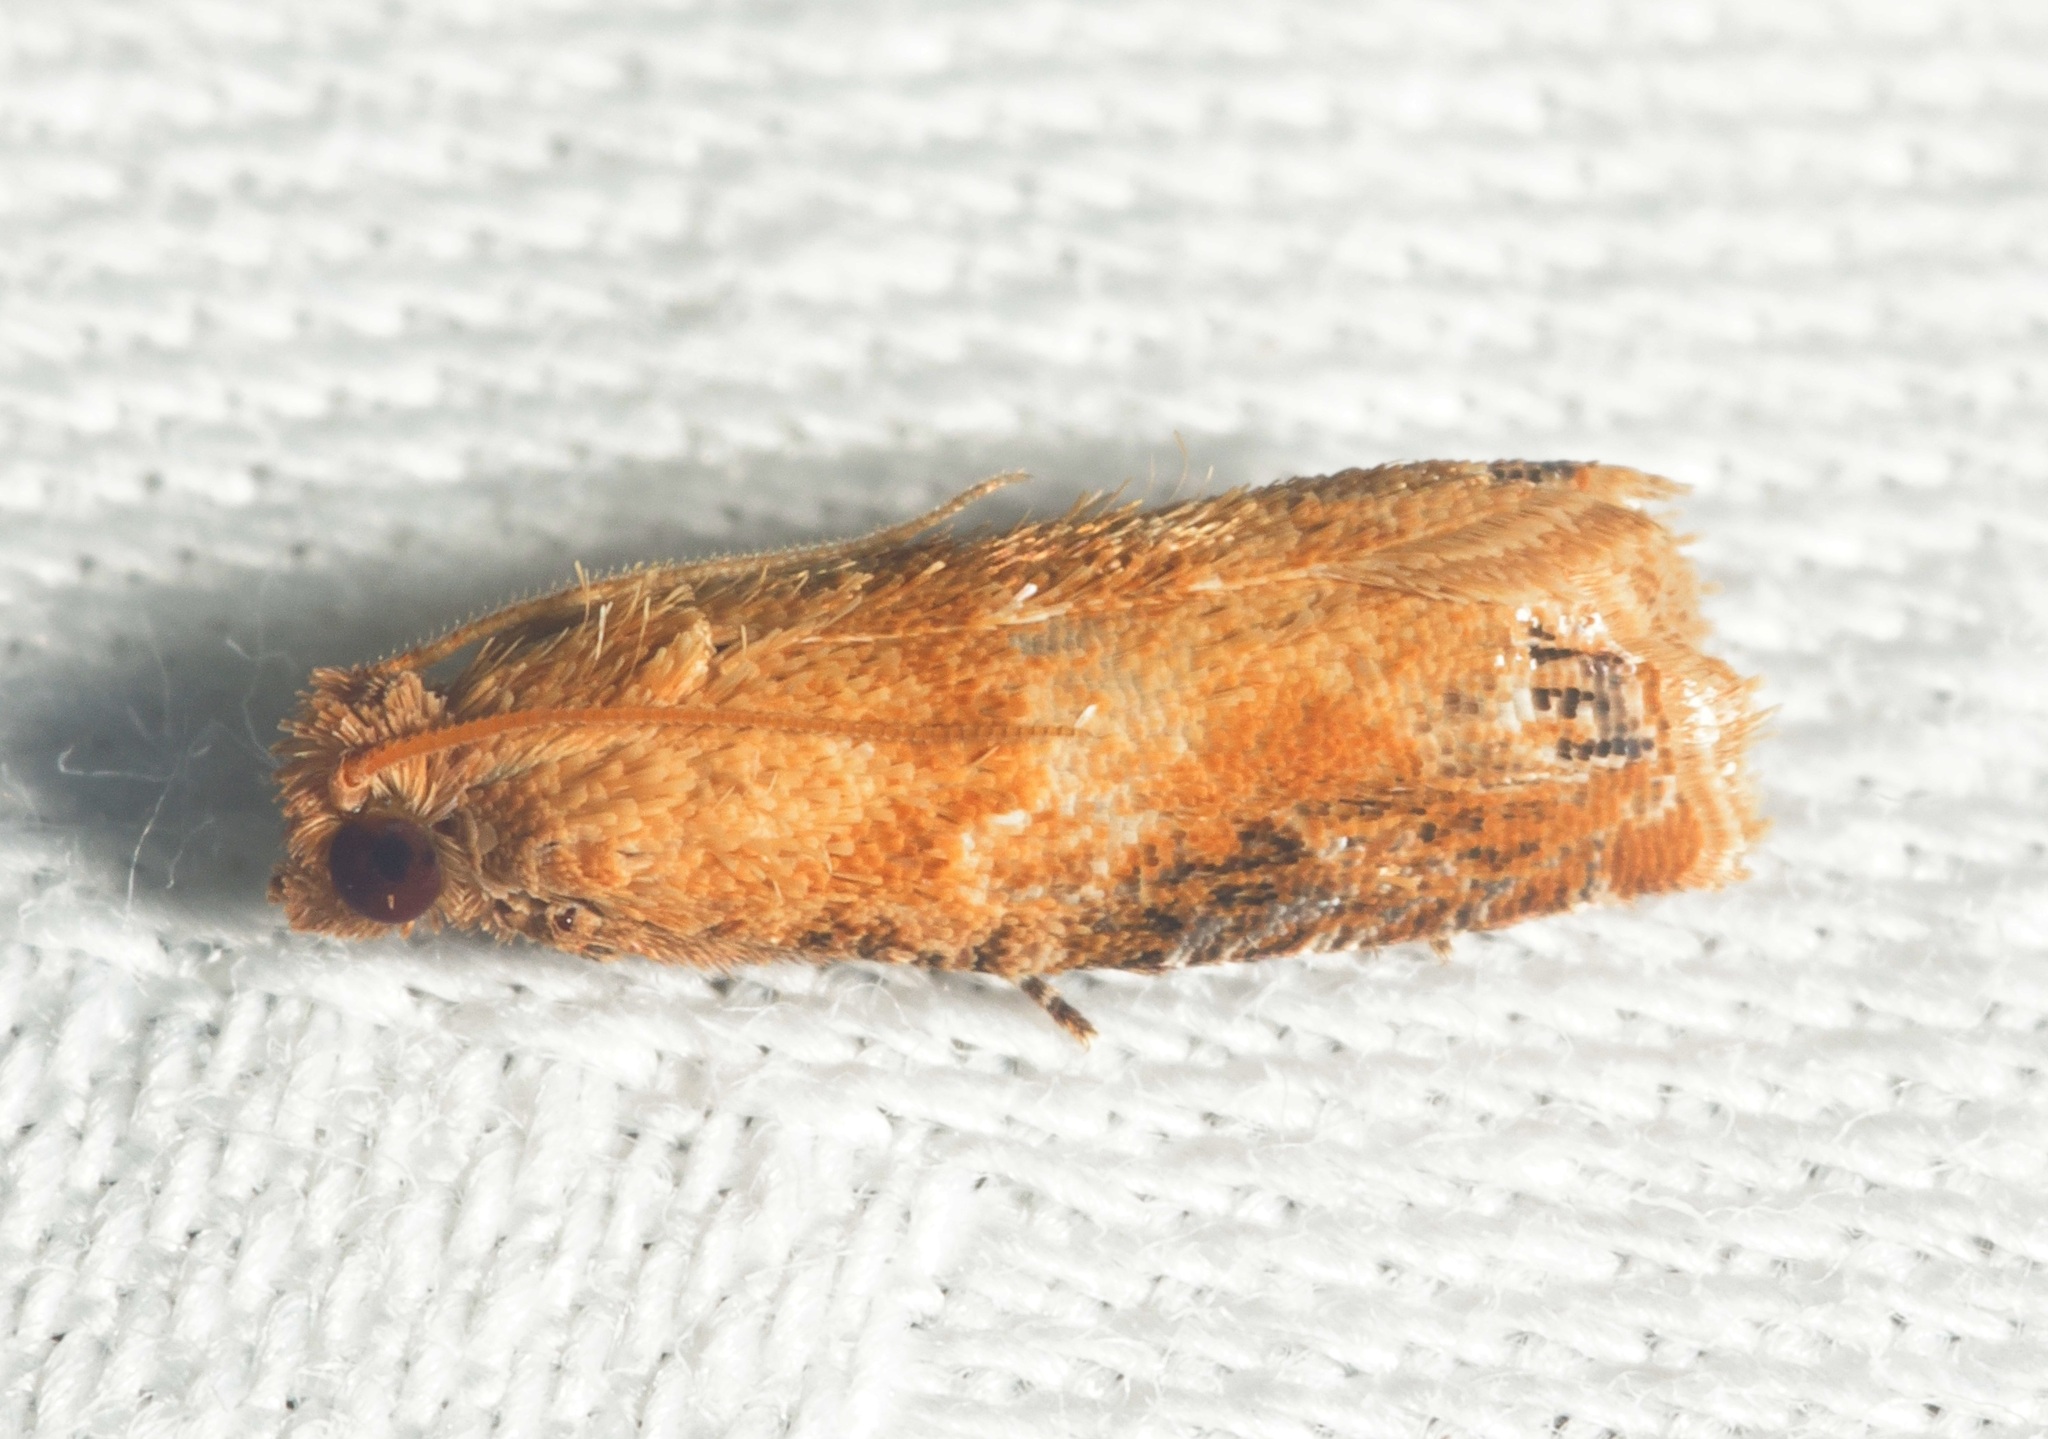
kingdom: Animalia
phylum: Arthropoda
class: Insecta
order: Lepidoptera
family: Tortricidae
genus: Lepteucosma
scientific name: Lepteucosma blanda
